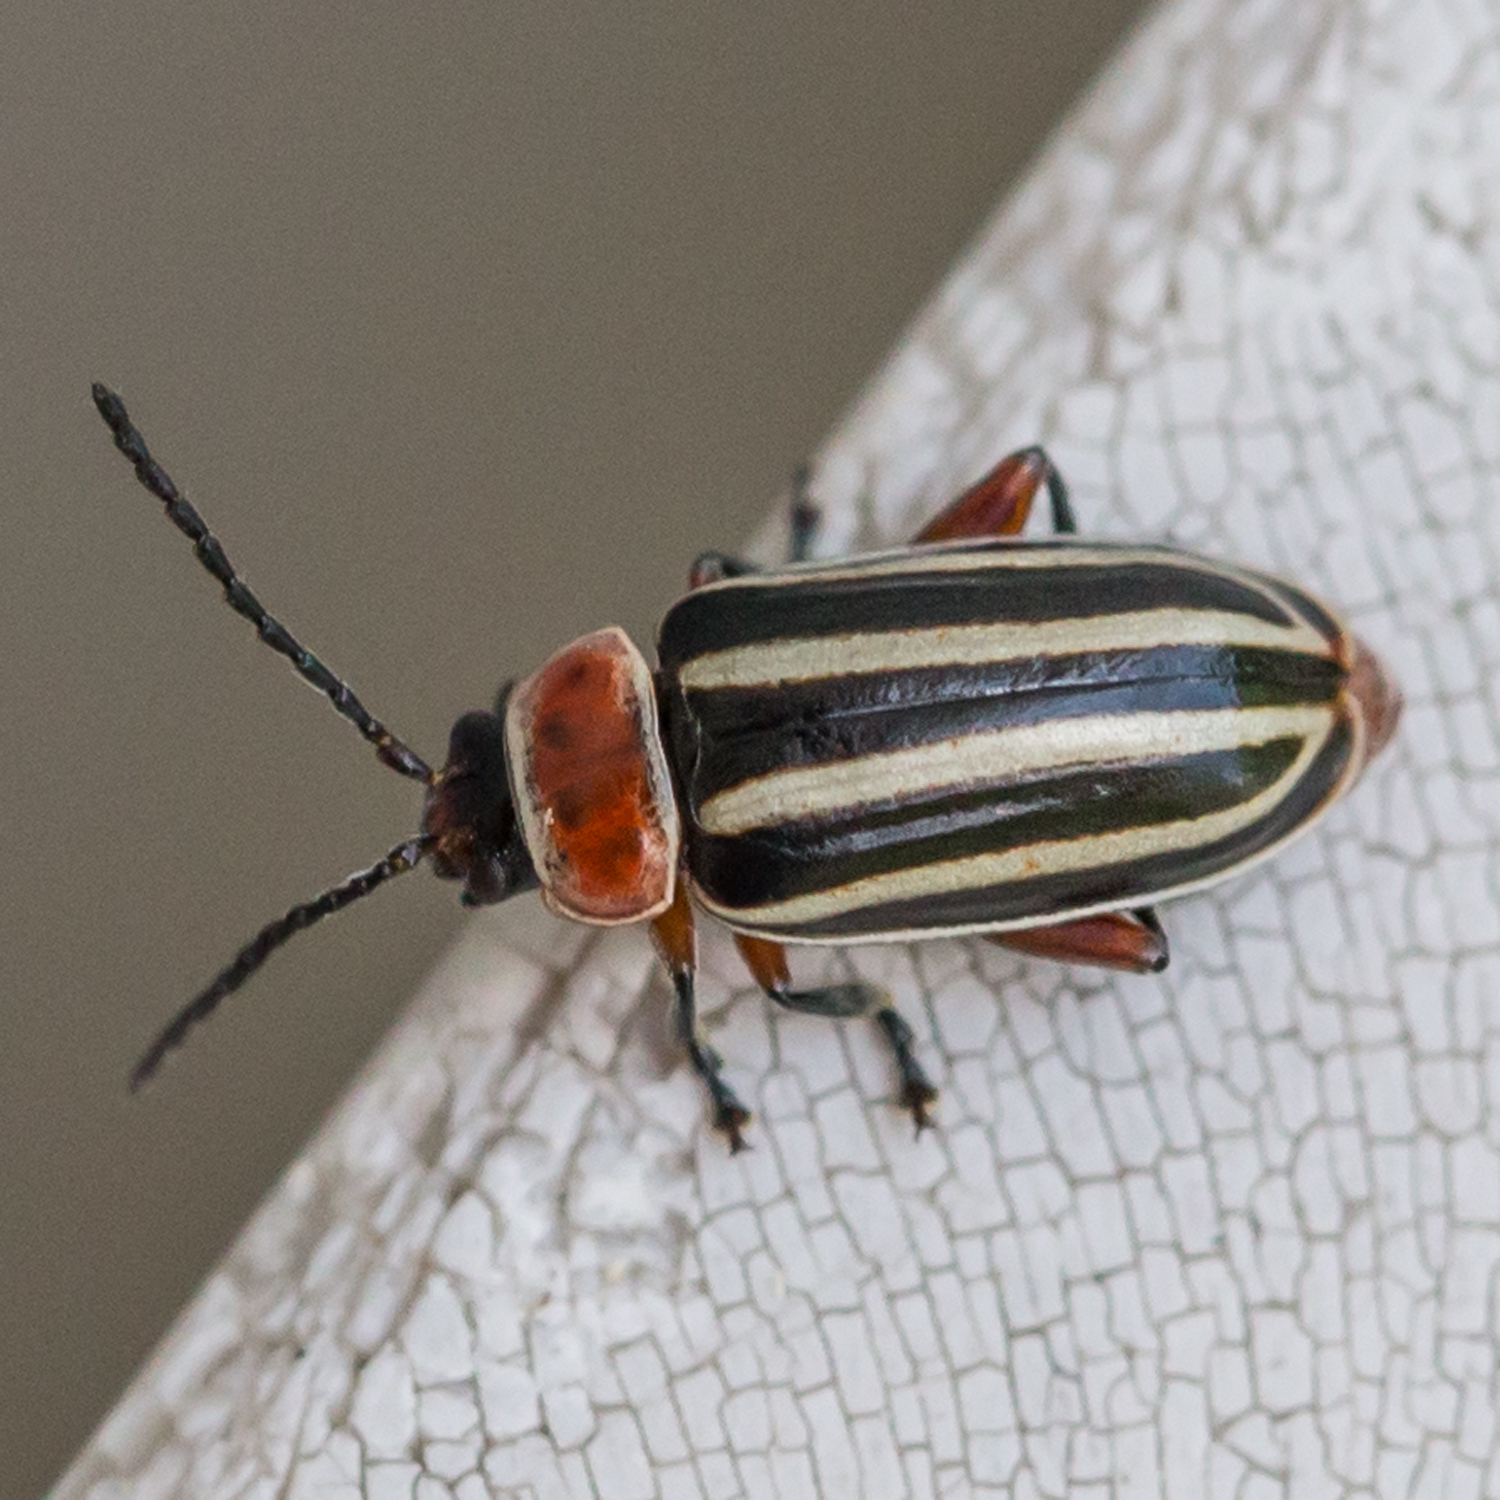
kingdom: Animalia
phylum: Arthropoda
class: Insecta
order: Coleoptera
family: Chrysomelidae
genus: Disonycha
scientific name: Disonycha procera
